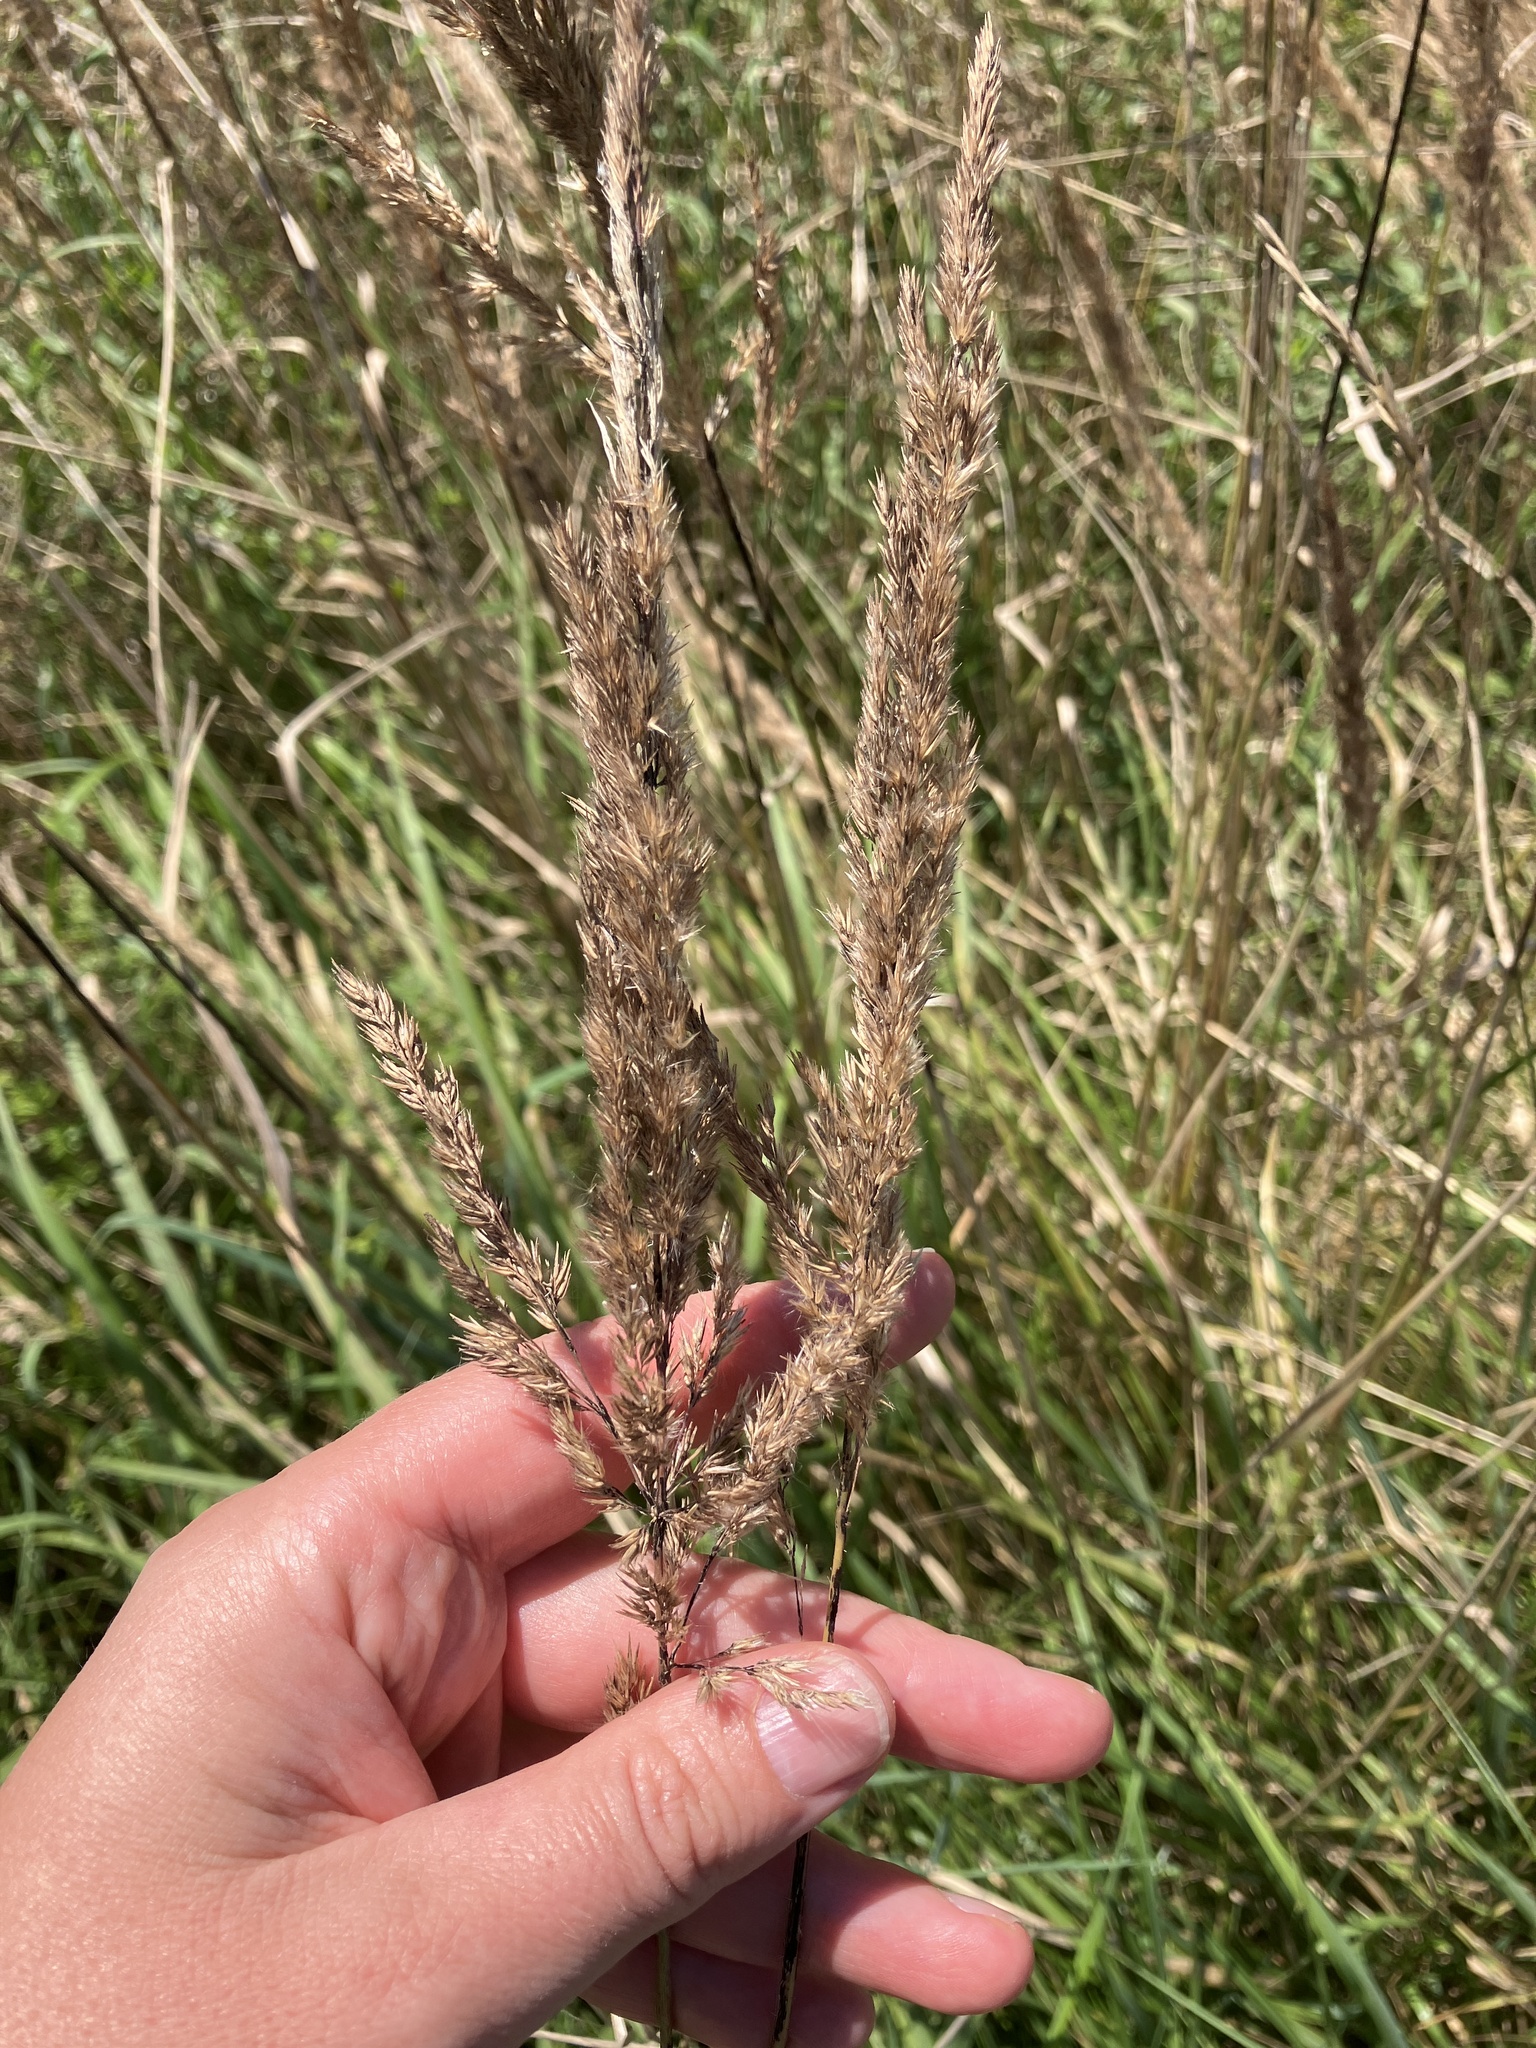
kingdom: Plantae
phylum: Tracheophyta
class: Liliopsida
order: Poales
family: Poaceae
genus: Calamagrostis
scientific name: Calamagrostis epigejos
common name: Wood small-reed
